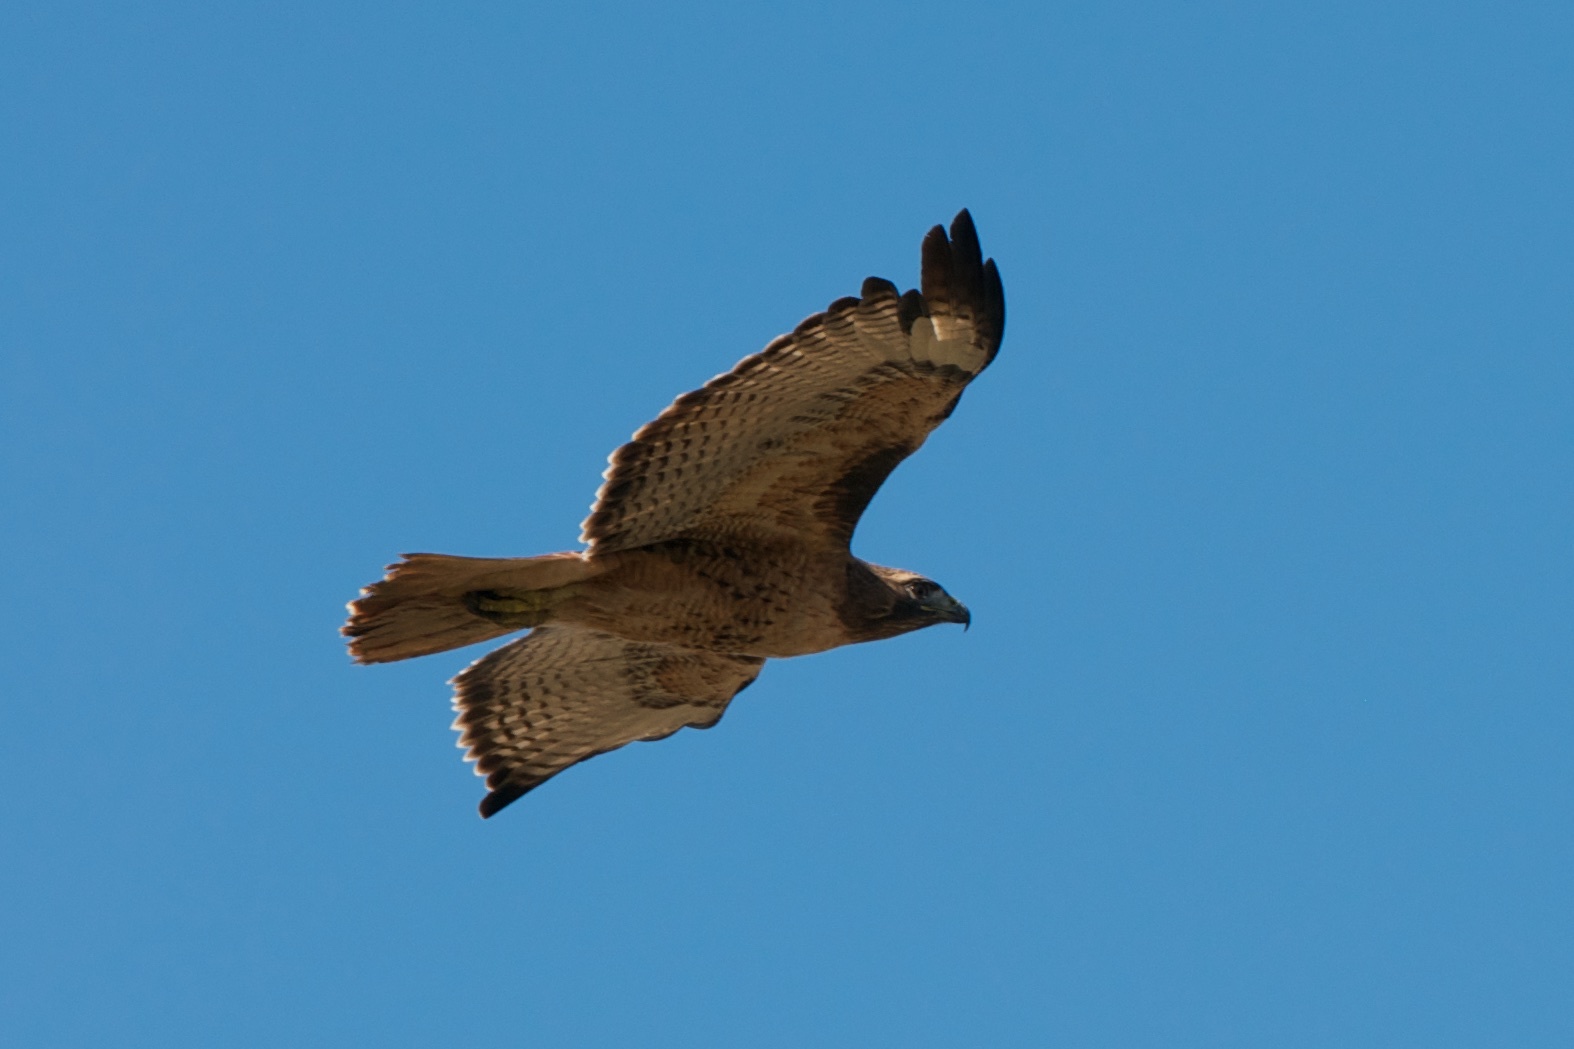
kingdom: Animalia
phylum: Chordata
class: Aves
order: Accipitriformes
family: Accipitridae
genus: Buteo
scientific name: Buteo jamaicensis
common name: Red-tailed hawk
